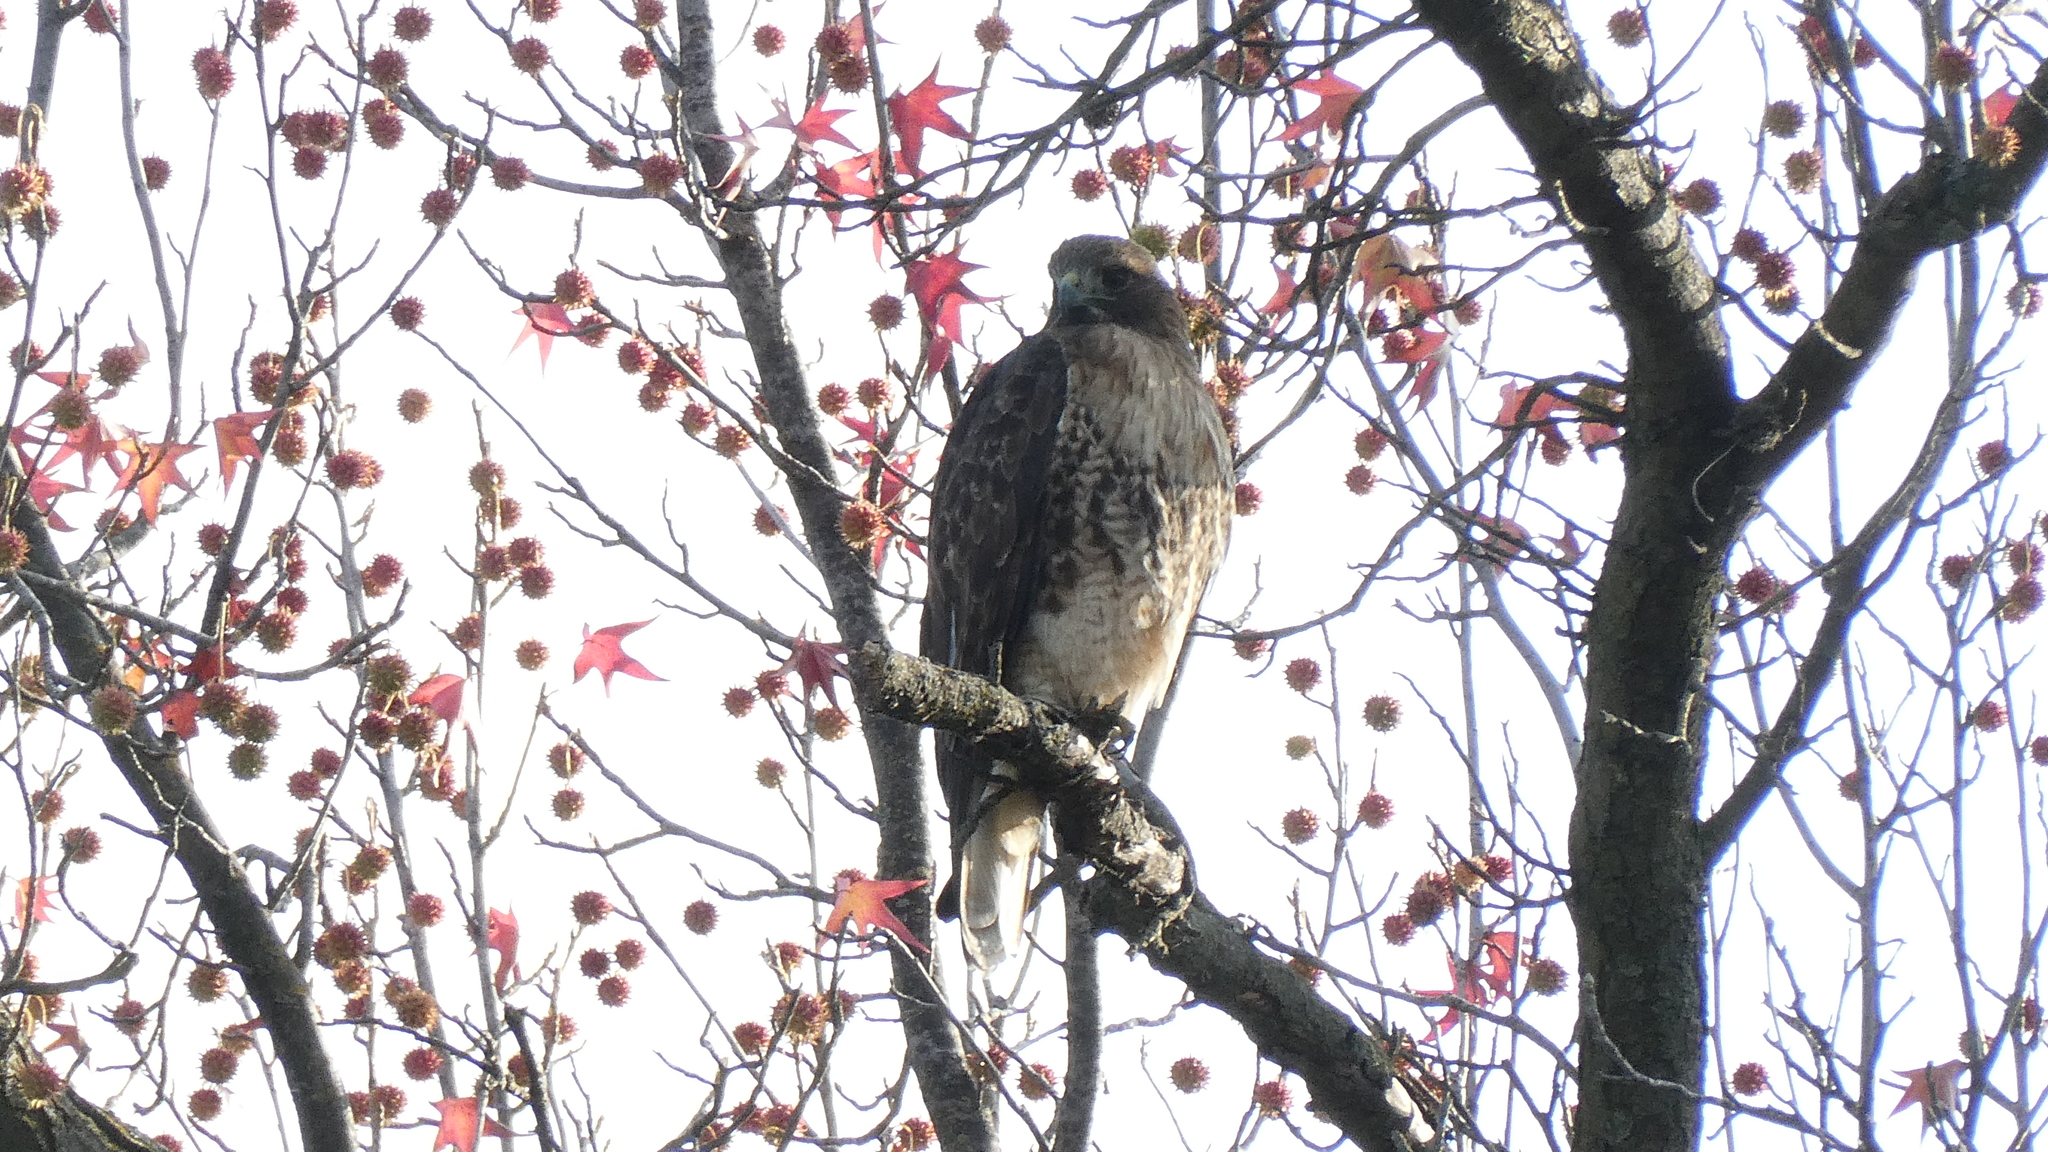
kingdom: Animalia
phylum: Chordata
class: Aves
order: Accipitriformes
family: Accipitridae
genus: Buteo
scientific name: Buteo jamaicensis
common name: Red-tailed hawk
